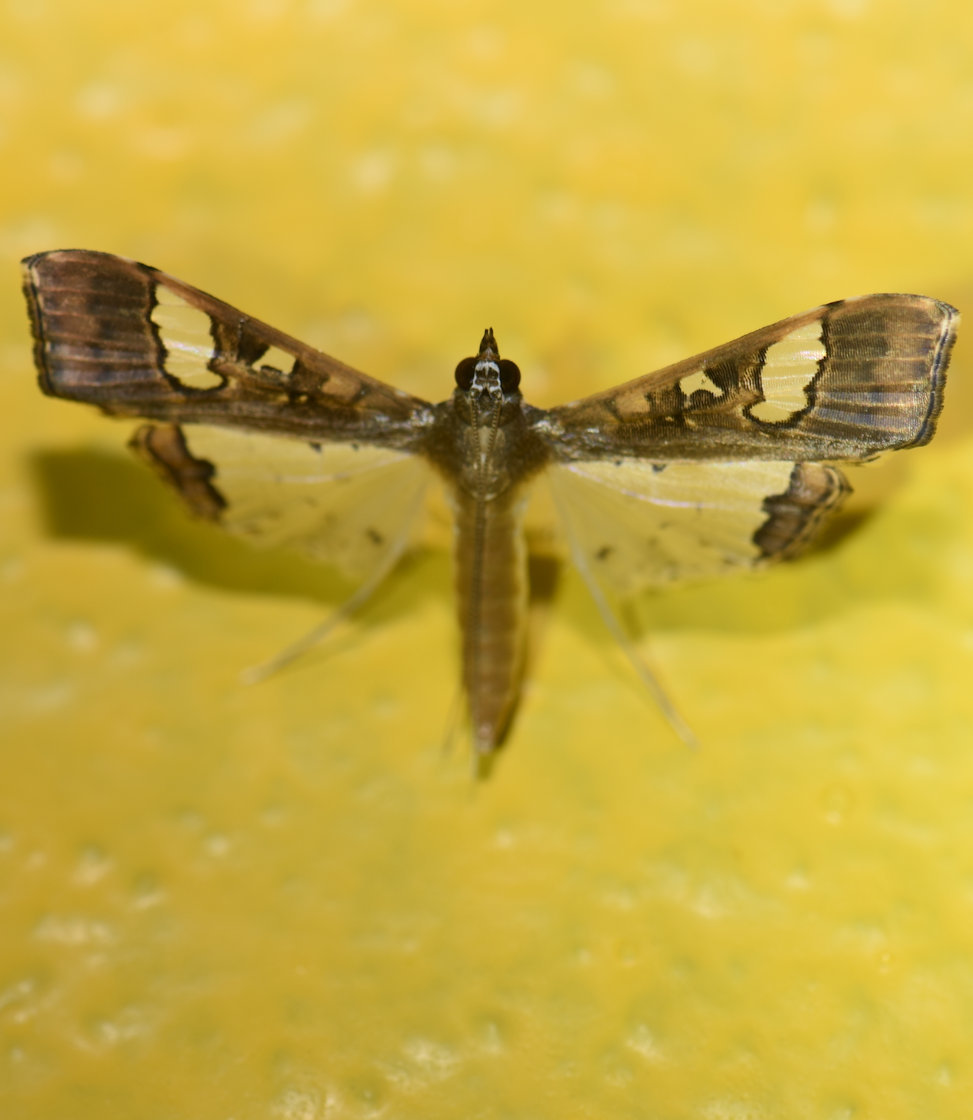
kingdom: Animalia
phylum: Arthropoda
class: Insecta
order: Lepidoptera
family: Crambidae
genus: Maruca
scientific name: Maruca vitrata
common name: Maruca pod borer
